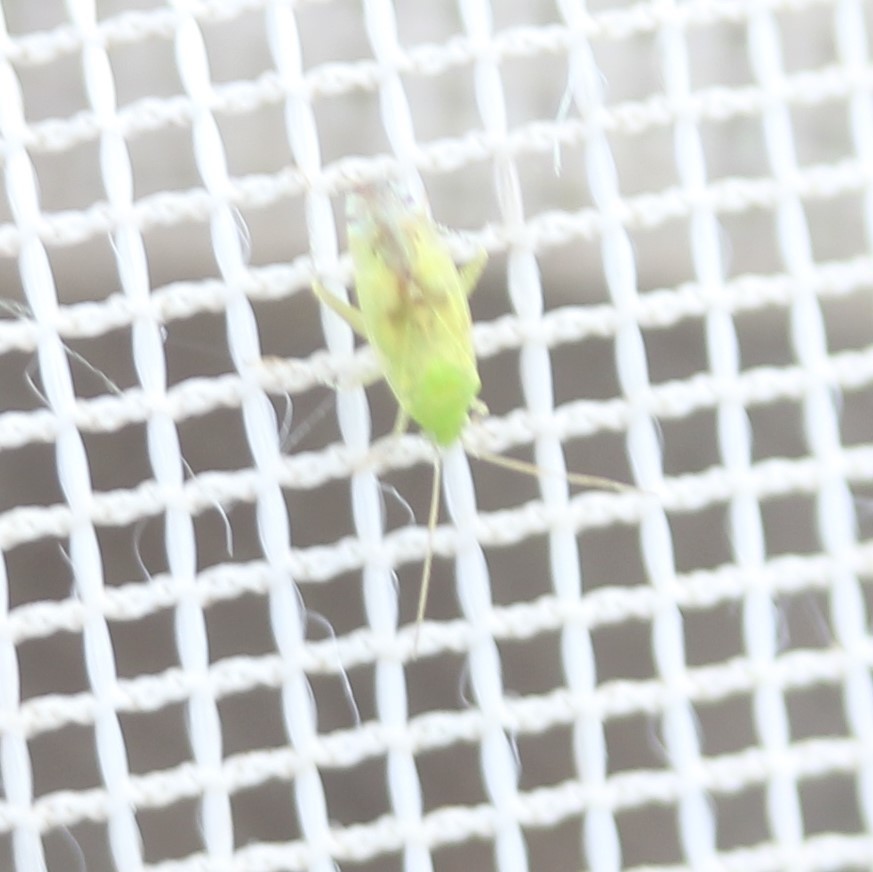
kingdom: Animalia
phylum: Arthropoda
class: Insecta
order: Hemiptera
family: Miridae
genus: Keltonia
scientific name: Keltonia tuckeri
